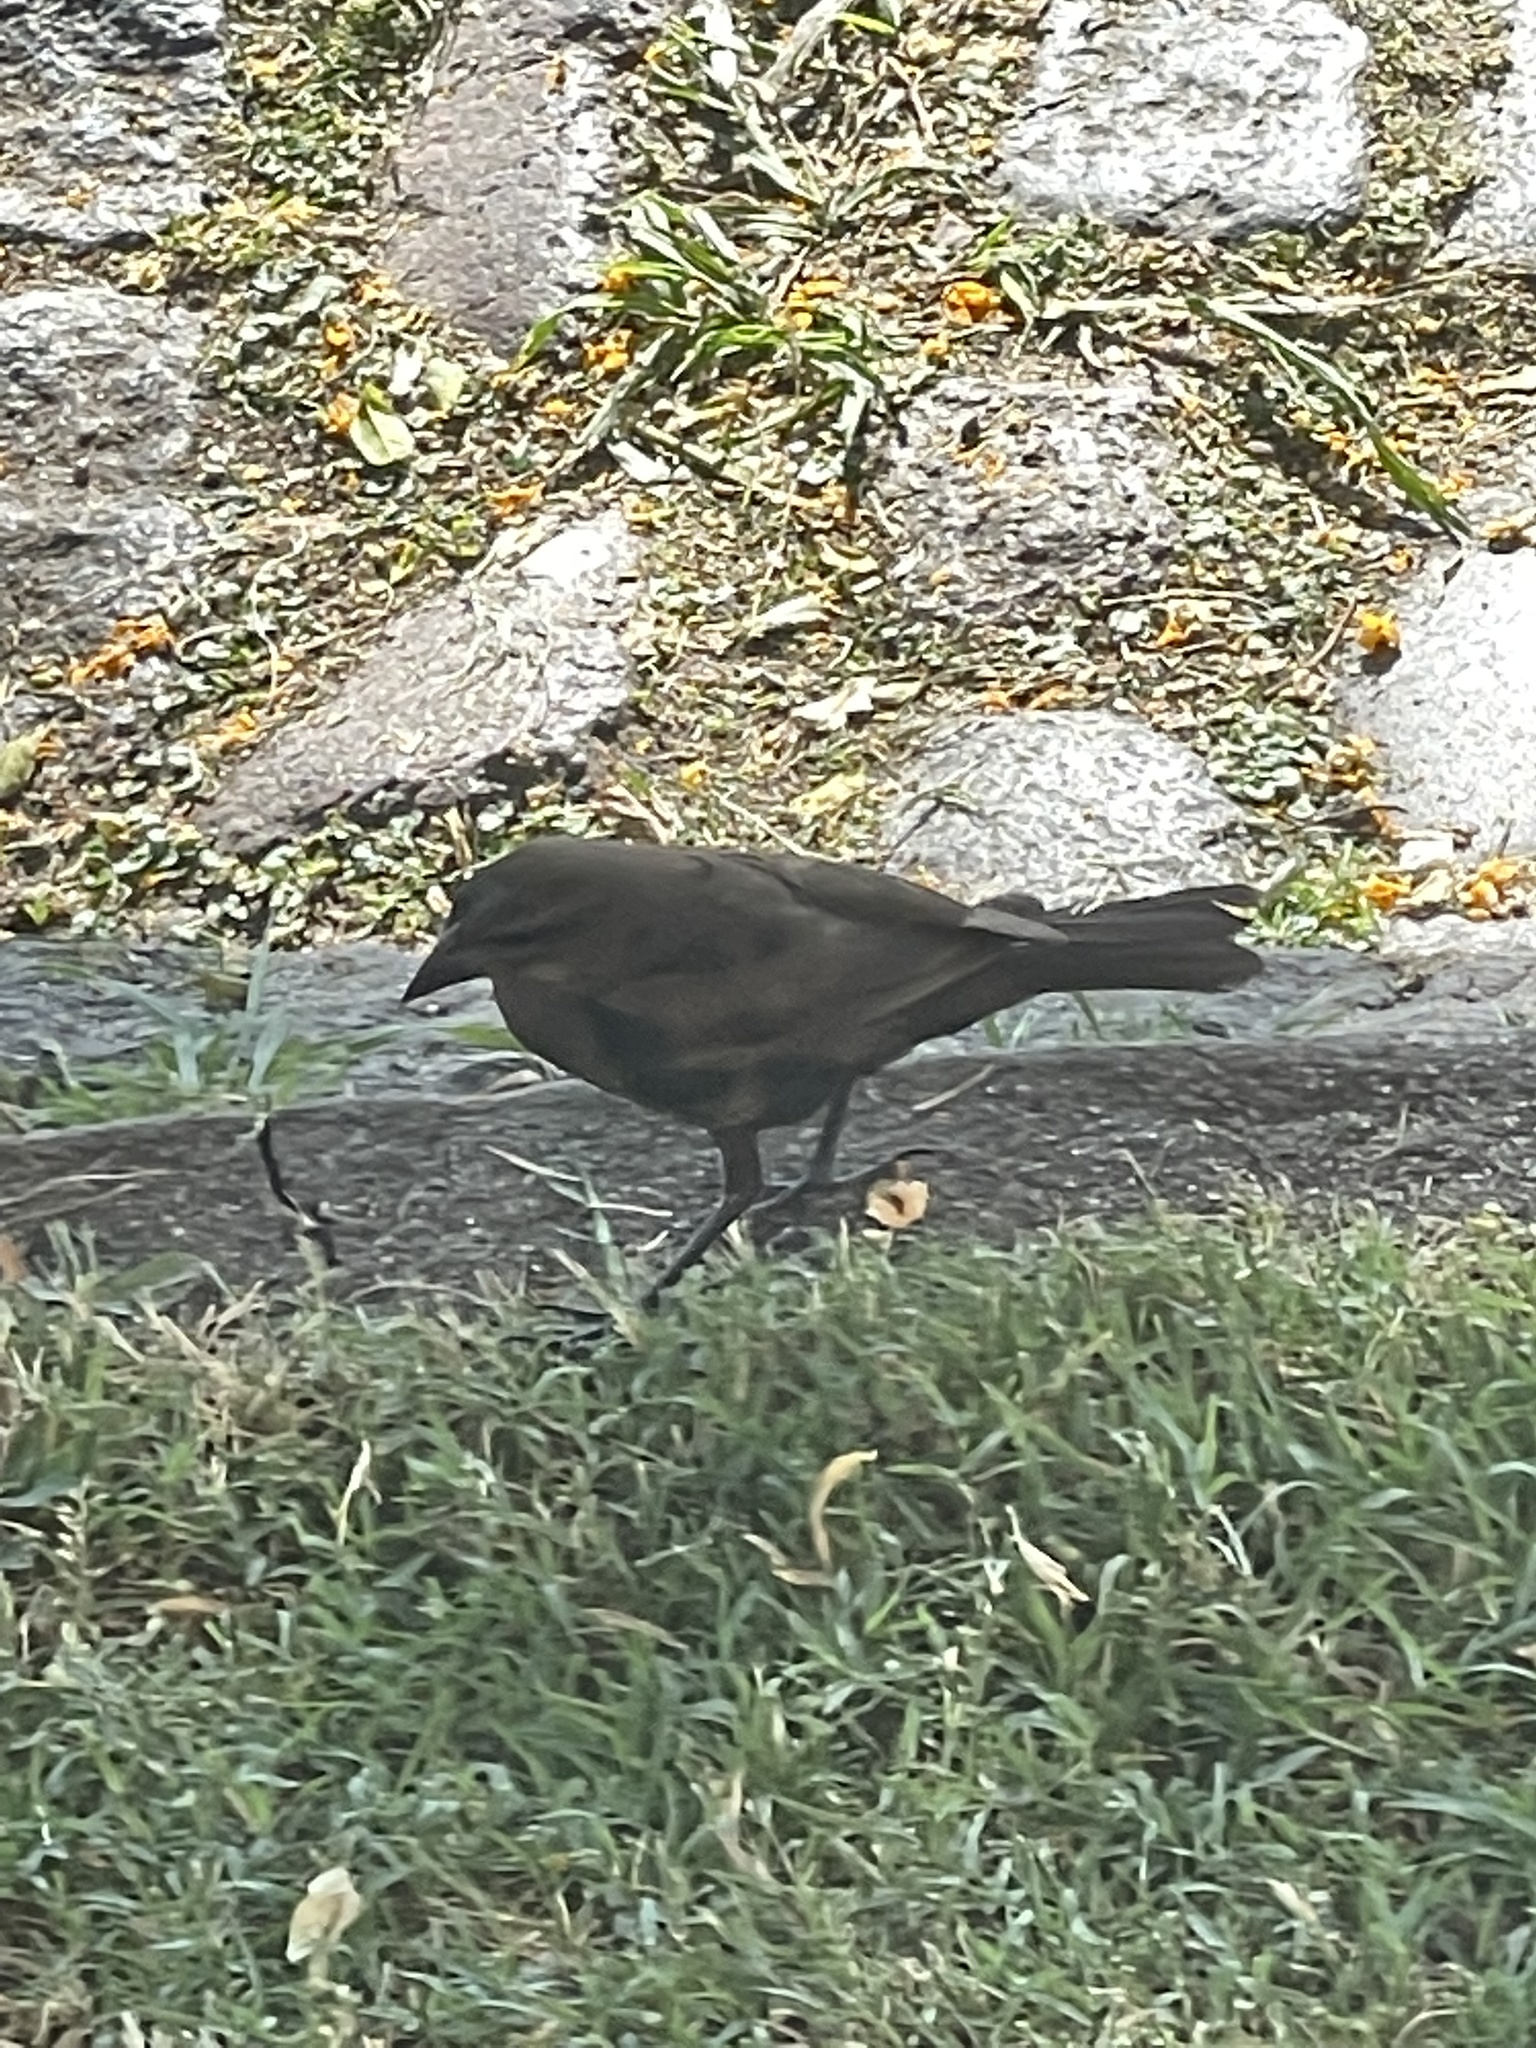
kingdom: Animalia
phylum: Chordata
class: Aves
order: Passeriformes
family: Icteridae
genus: Molothrus
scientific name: Molothrus bonariensis
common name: Shiny cowbird
